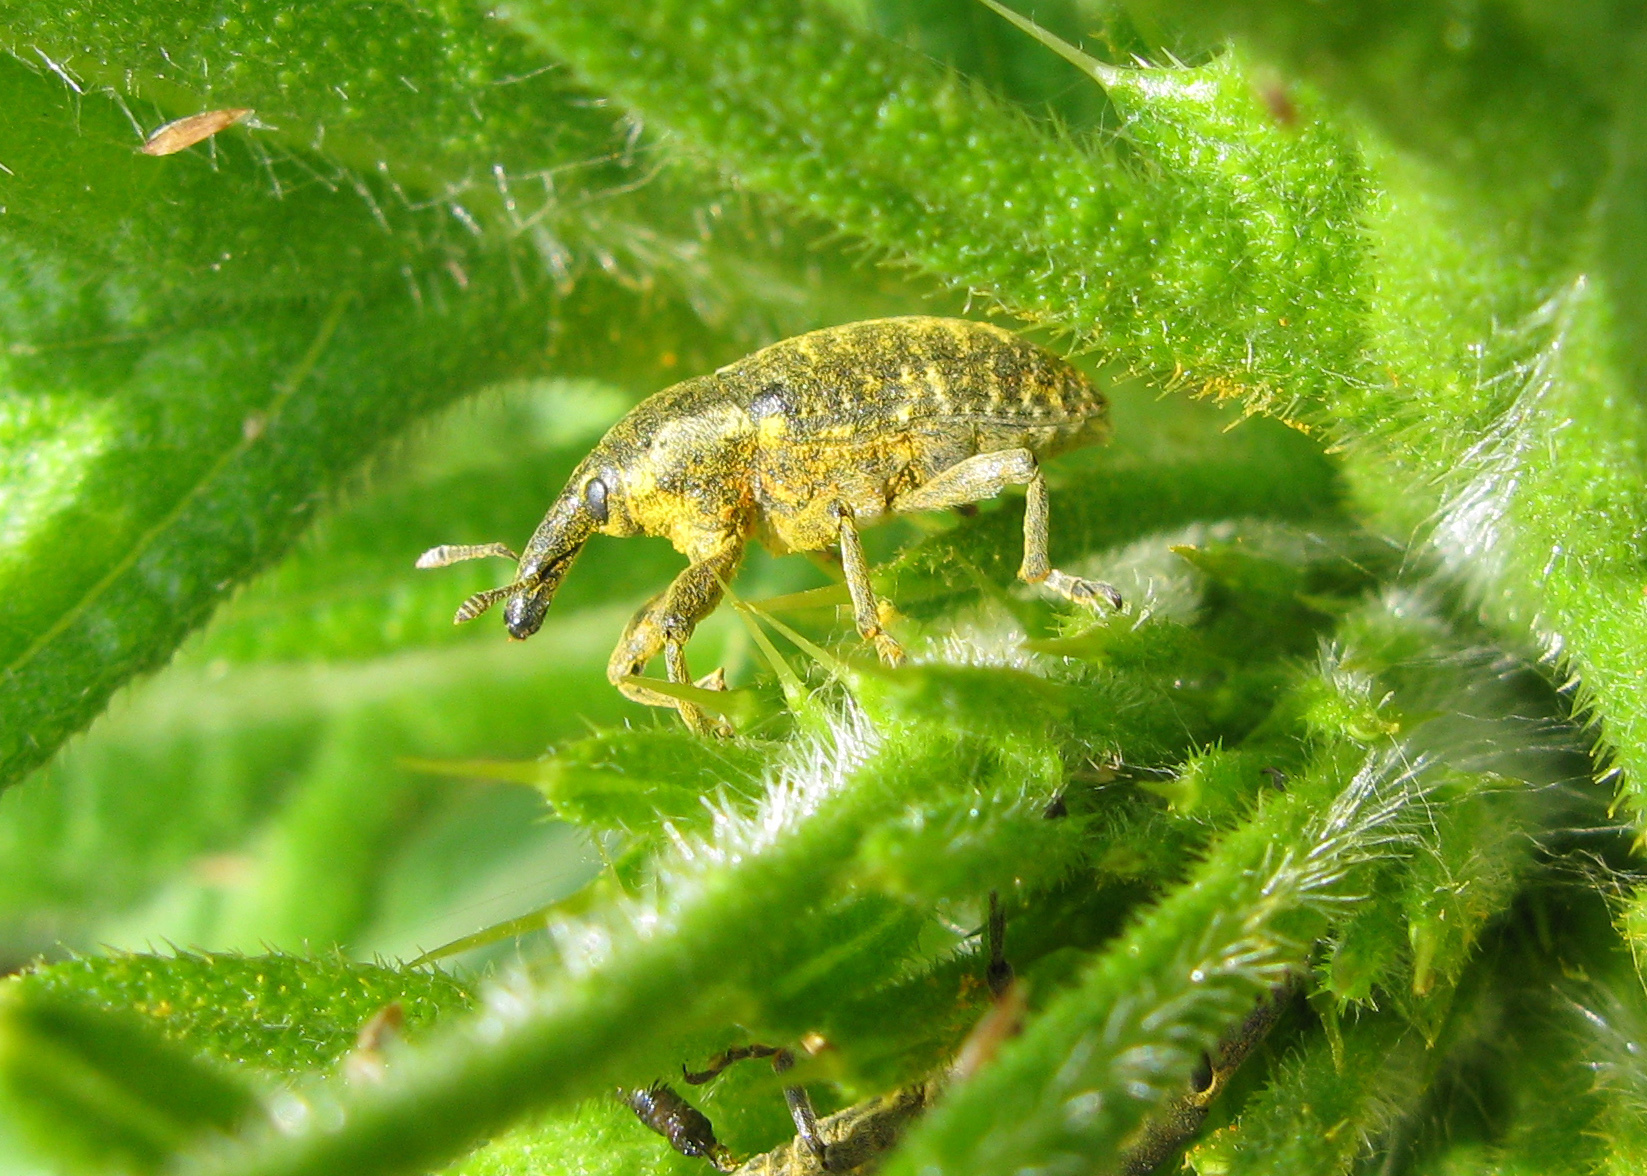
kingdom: Animalia
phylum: Arthropoda
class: Insecta
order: Coleoptera
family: Curculionidae
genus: Larinus
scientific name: Larinus sturnus
